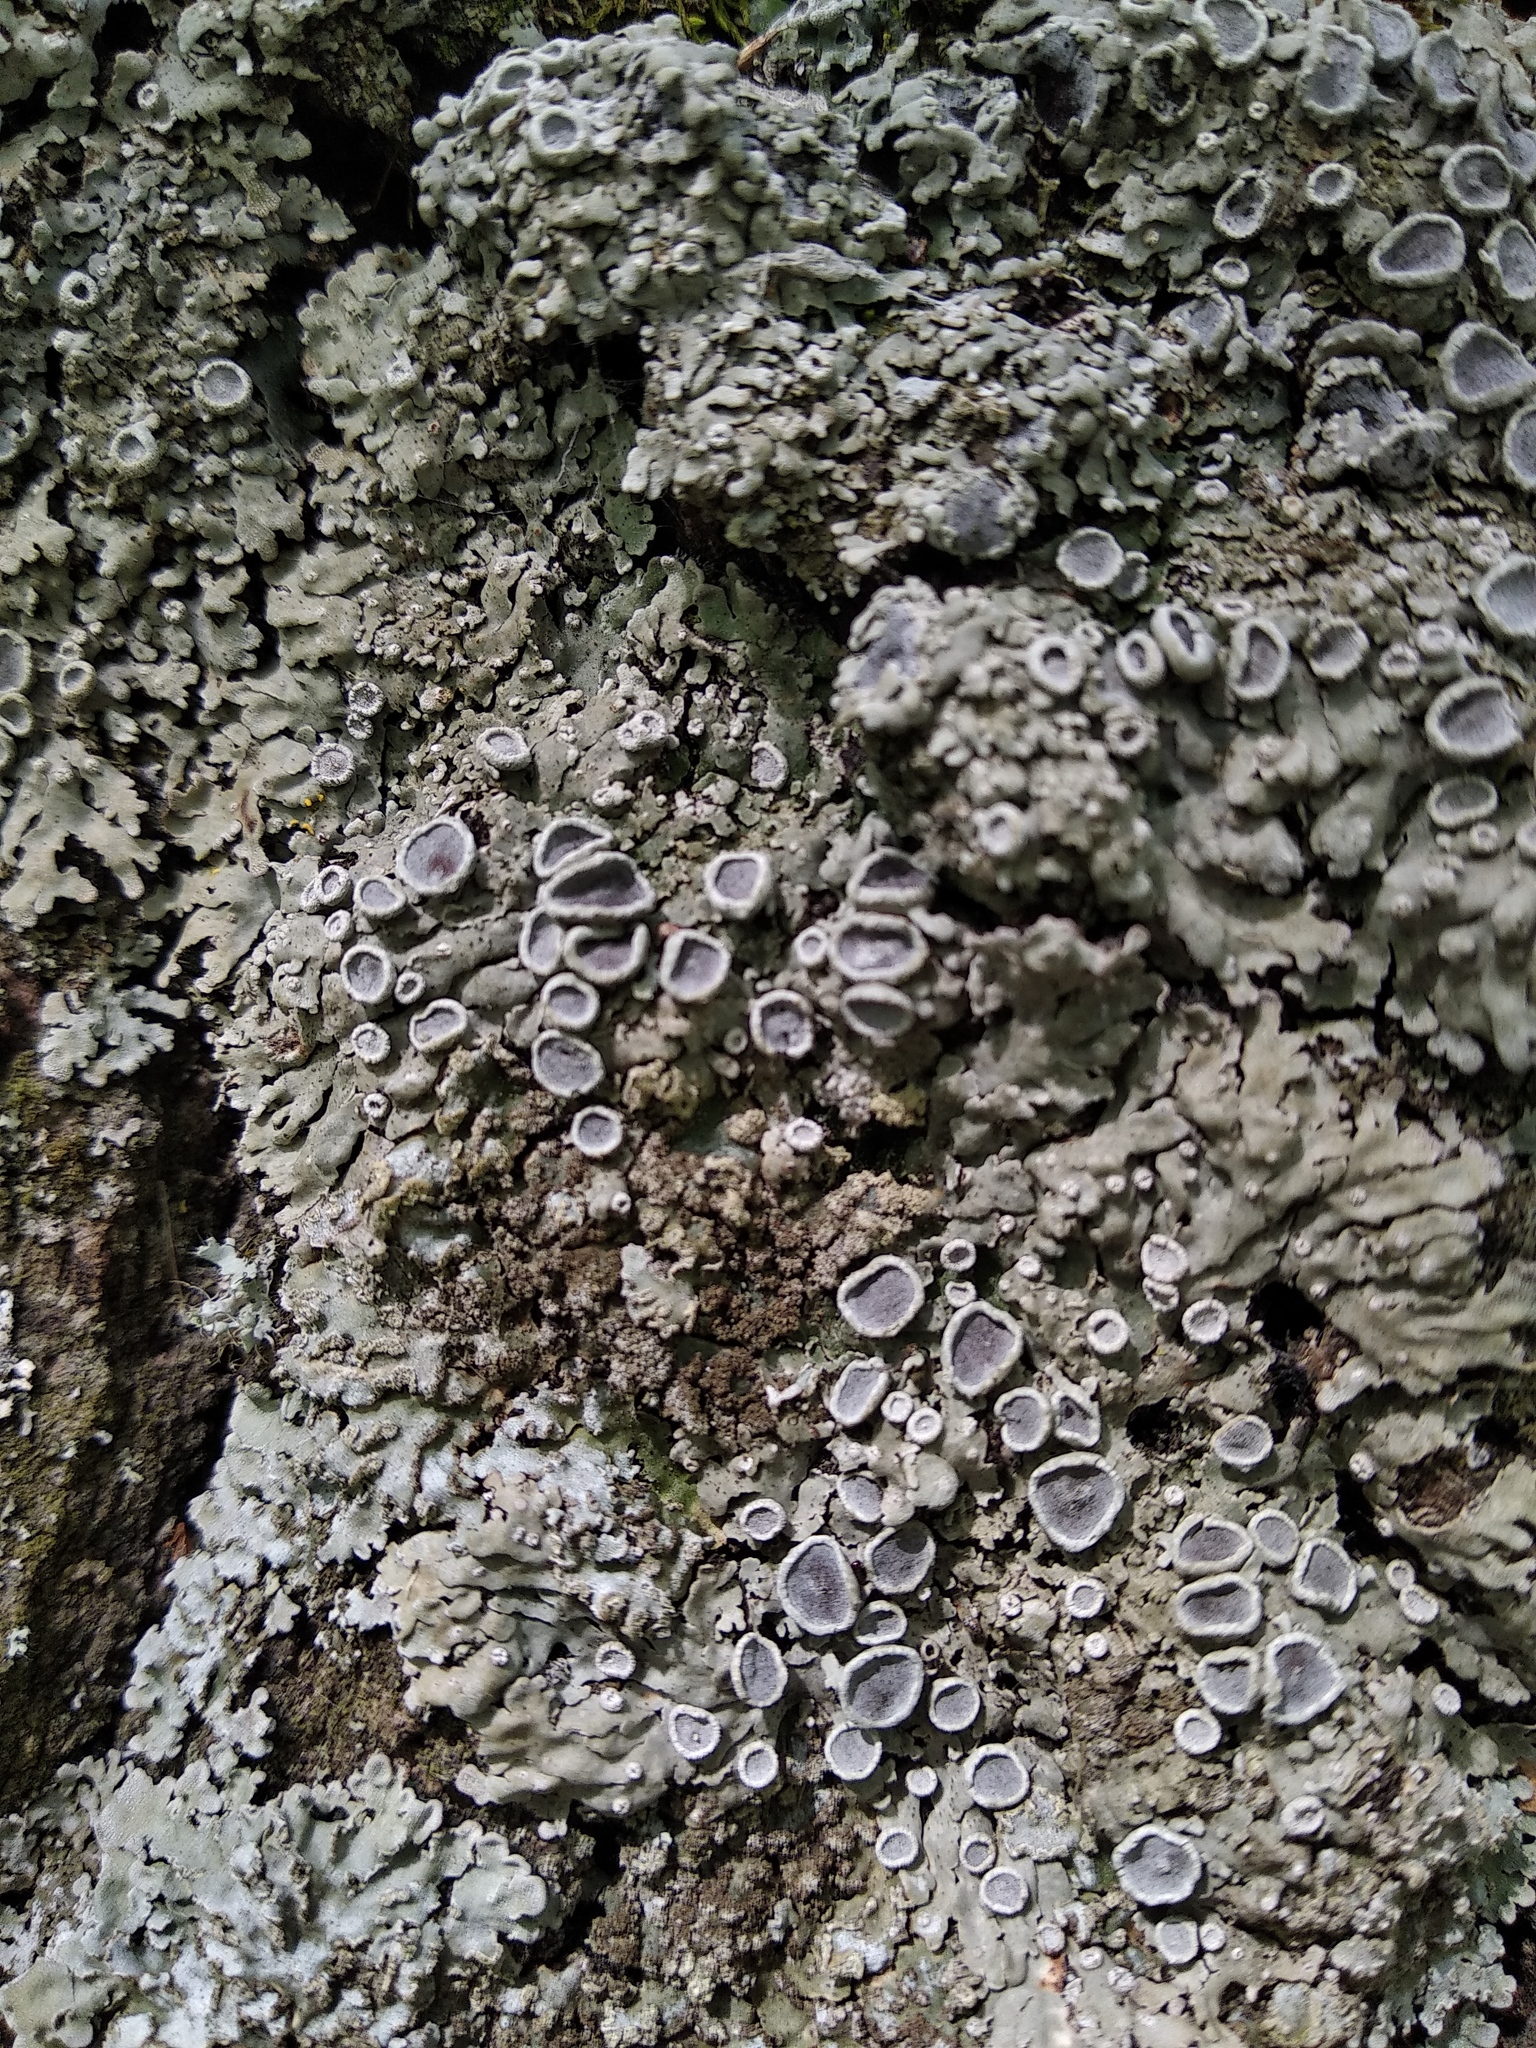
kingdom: Fungi
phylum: Ascomycota
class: Lecanoromycetes
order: Caliciales
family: Physciaceae
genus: Physconia
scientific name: Physconia distorta
